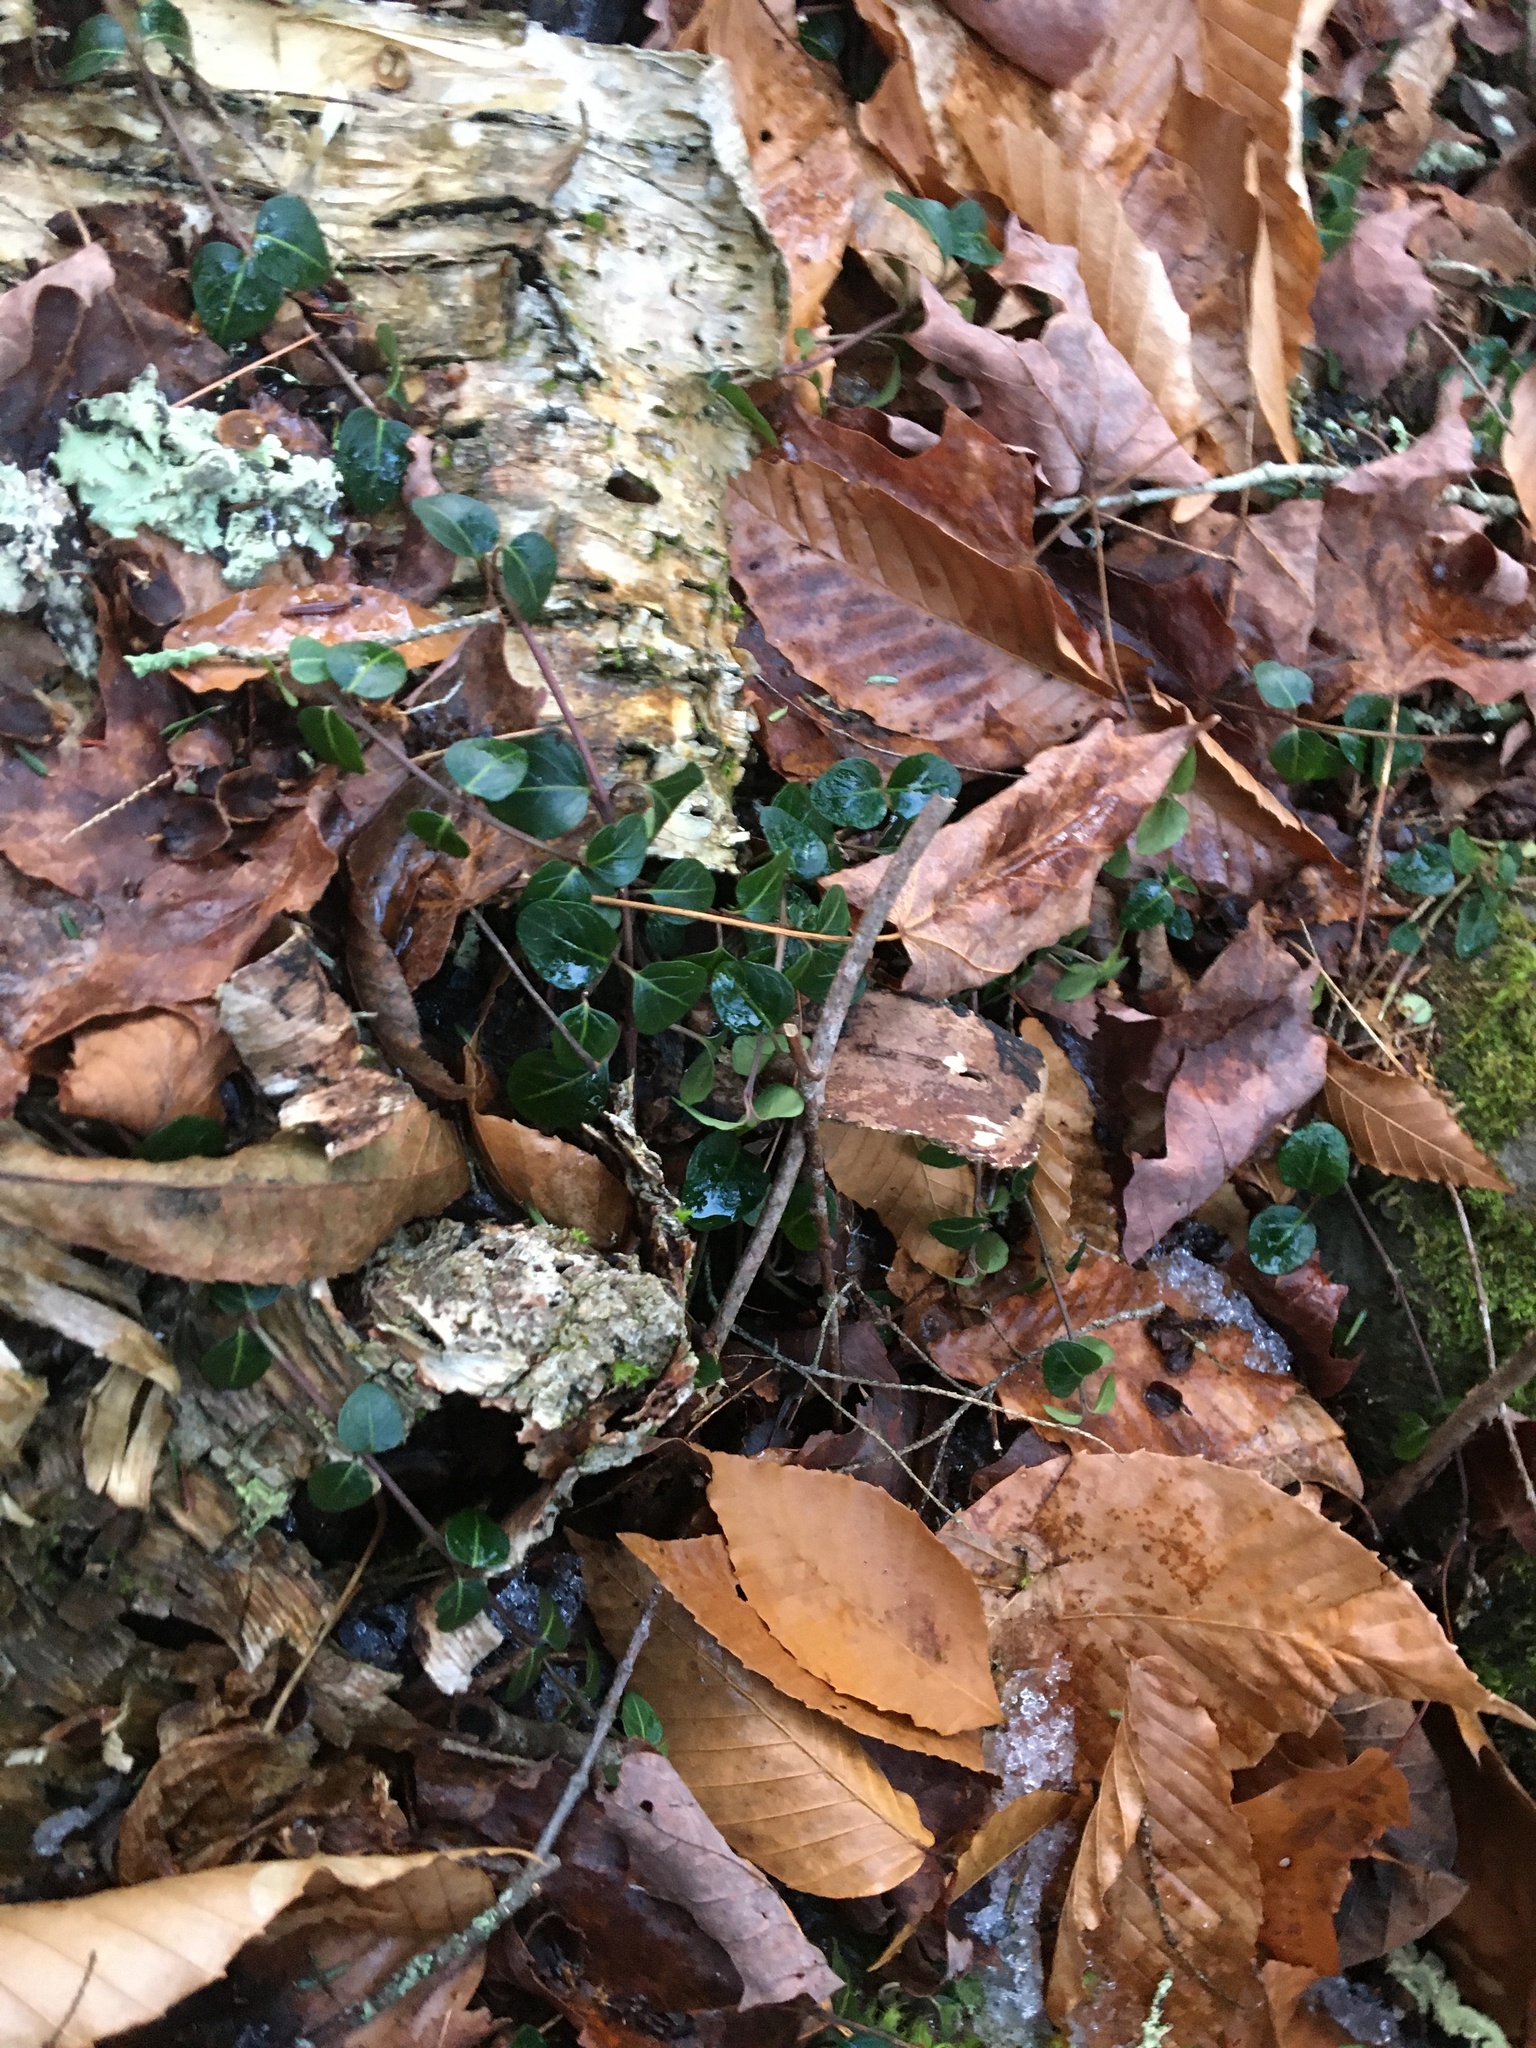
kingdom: Plantae
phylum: Tracheophyta
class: Magnoliopsida
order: Gentianales
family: Rubiaceae
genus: Mitchella
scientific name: Mitchella repens
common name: Partridge-berry
